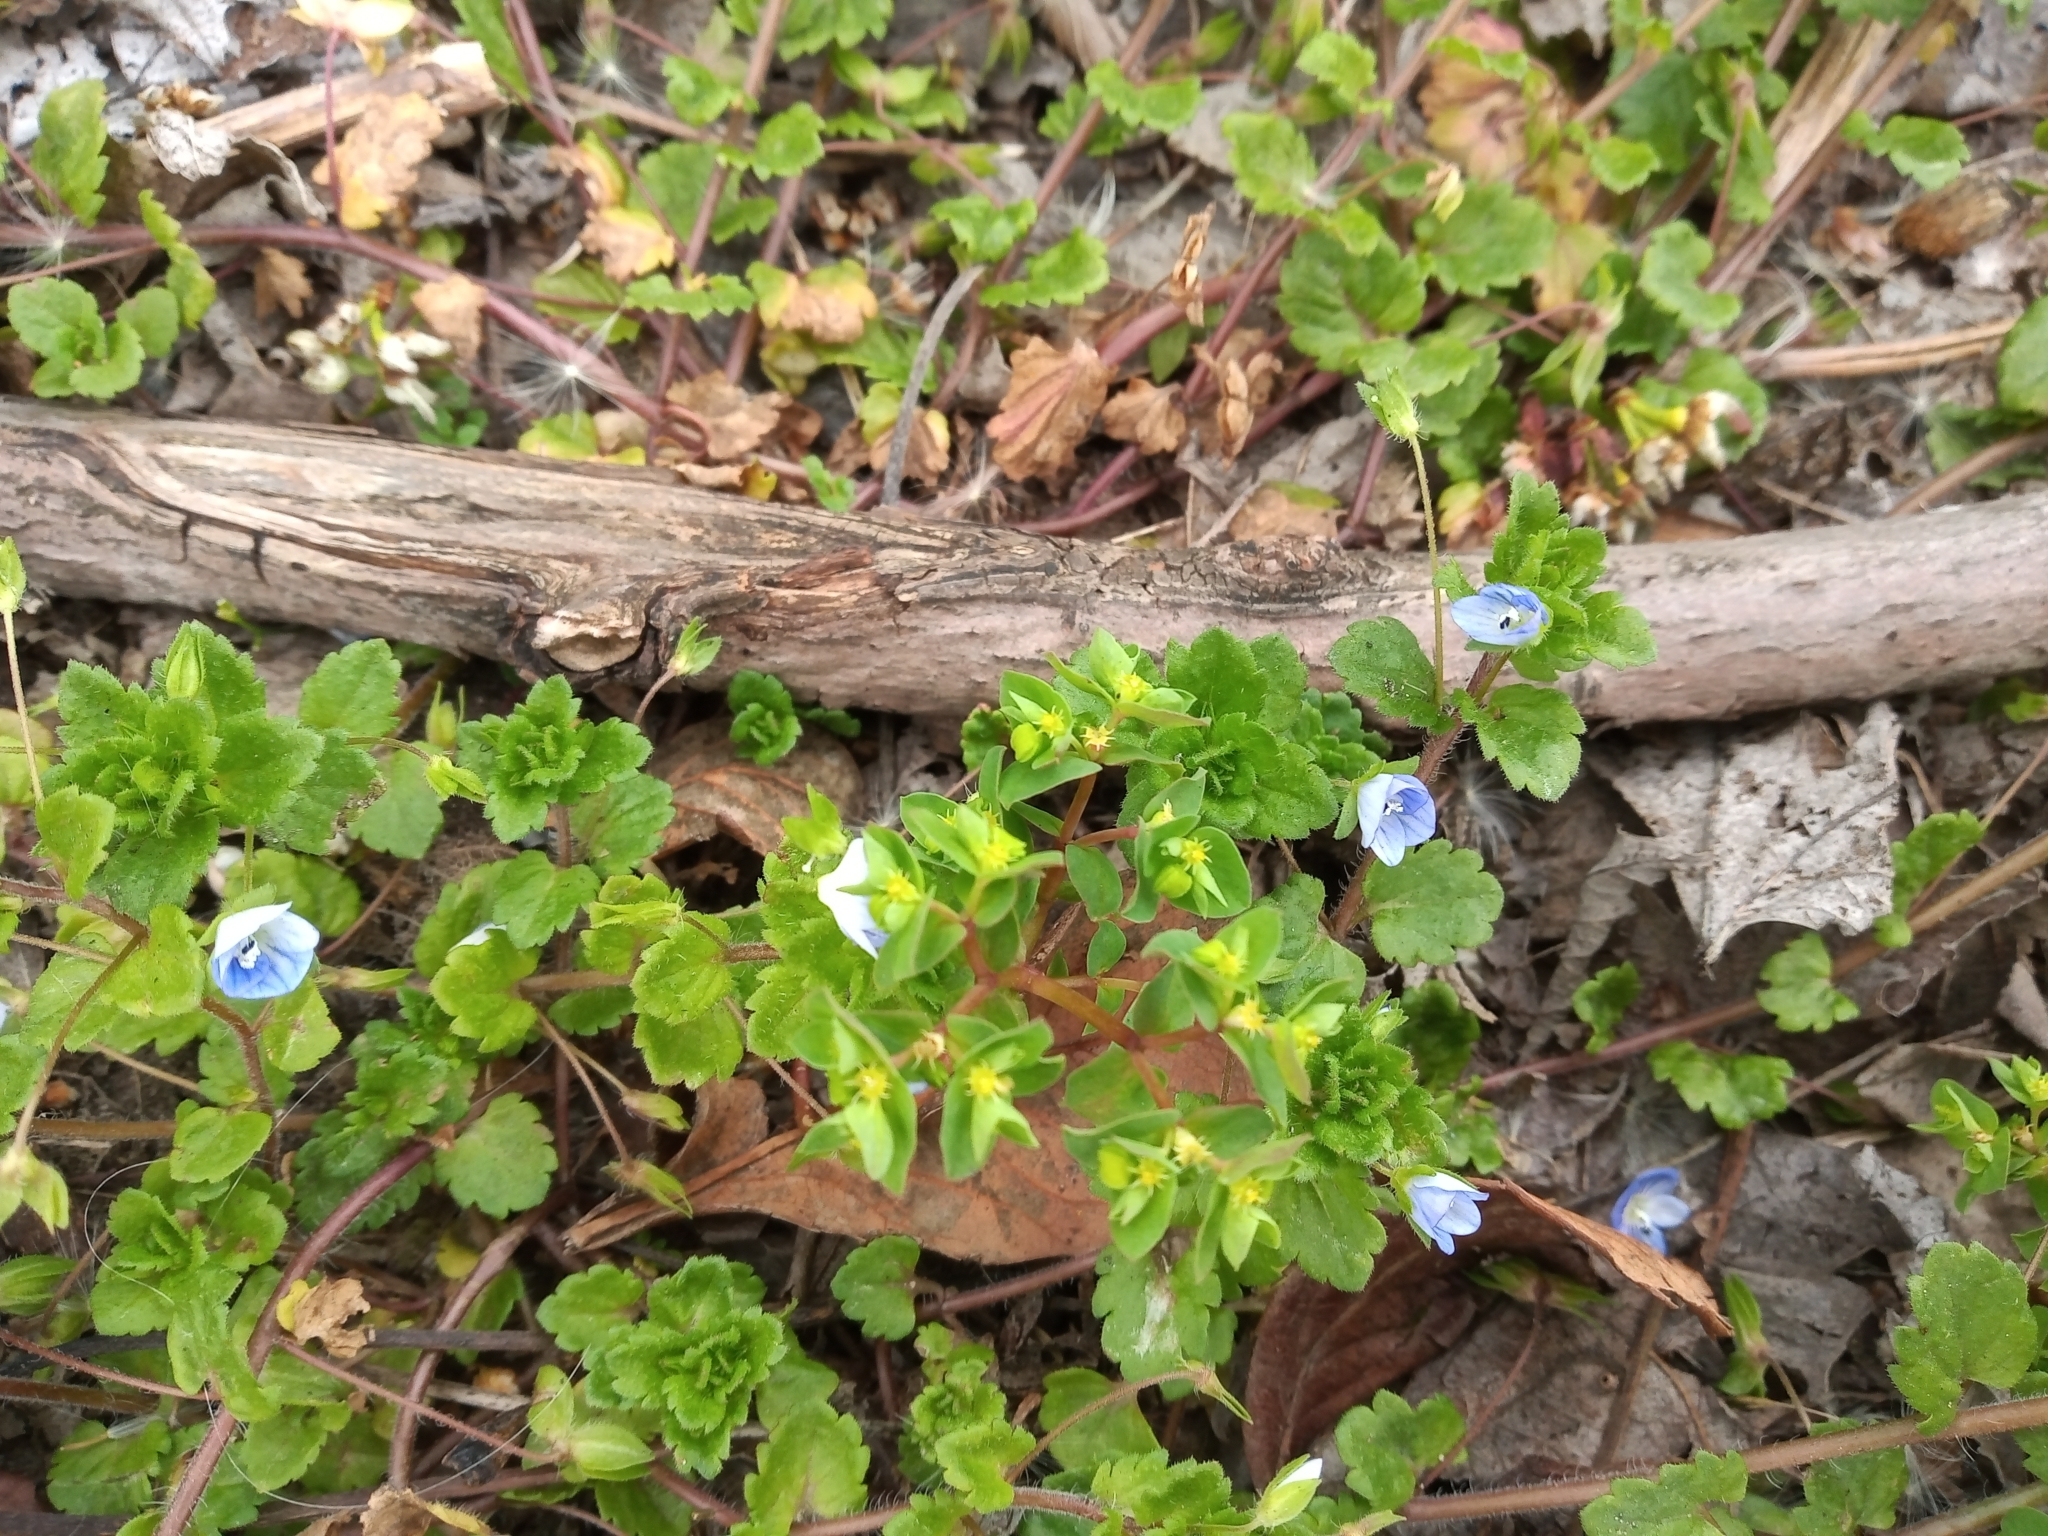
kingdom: Plantae
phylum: Tracheophyta
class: Magnoliopsida
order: Lamiales
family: Plantaginaceae
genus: Veronica
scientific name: Veronica persica
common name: Common field-speedwell
